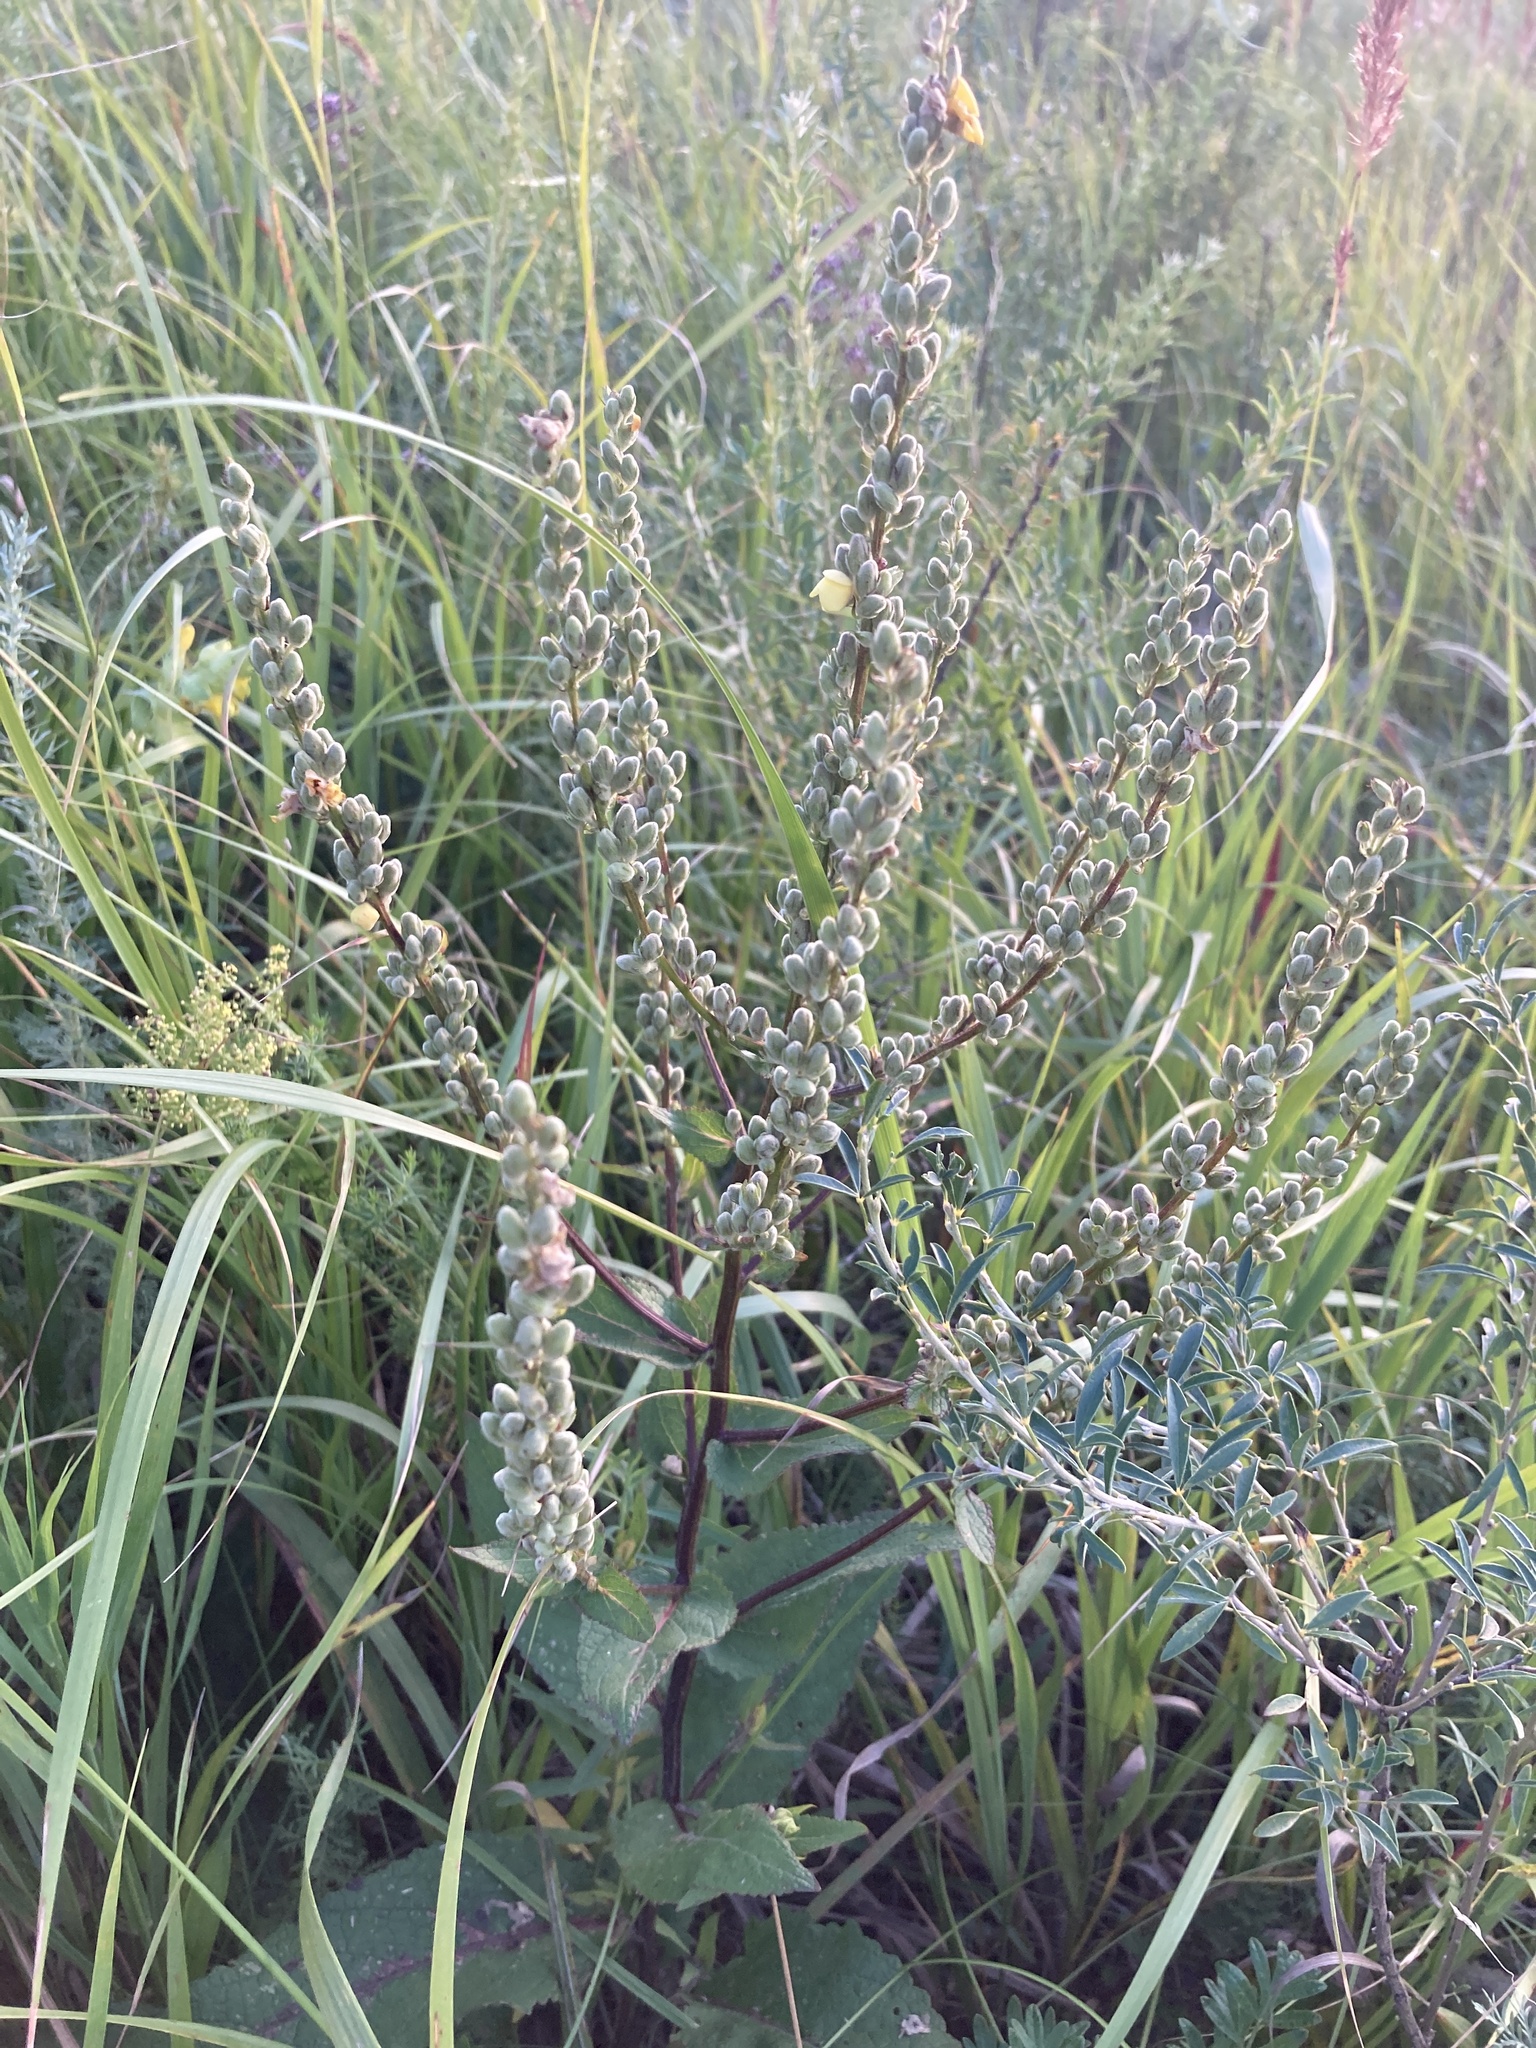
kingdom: Plantae
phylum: Tracheophyta
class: Magnoliopsida
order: Lamiales
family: Scrophulariaceae
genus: Verbascum
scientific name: Verbascum chaixii
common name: Nettle-leaved mullein
